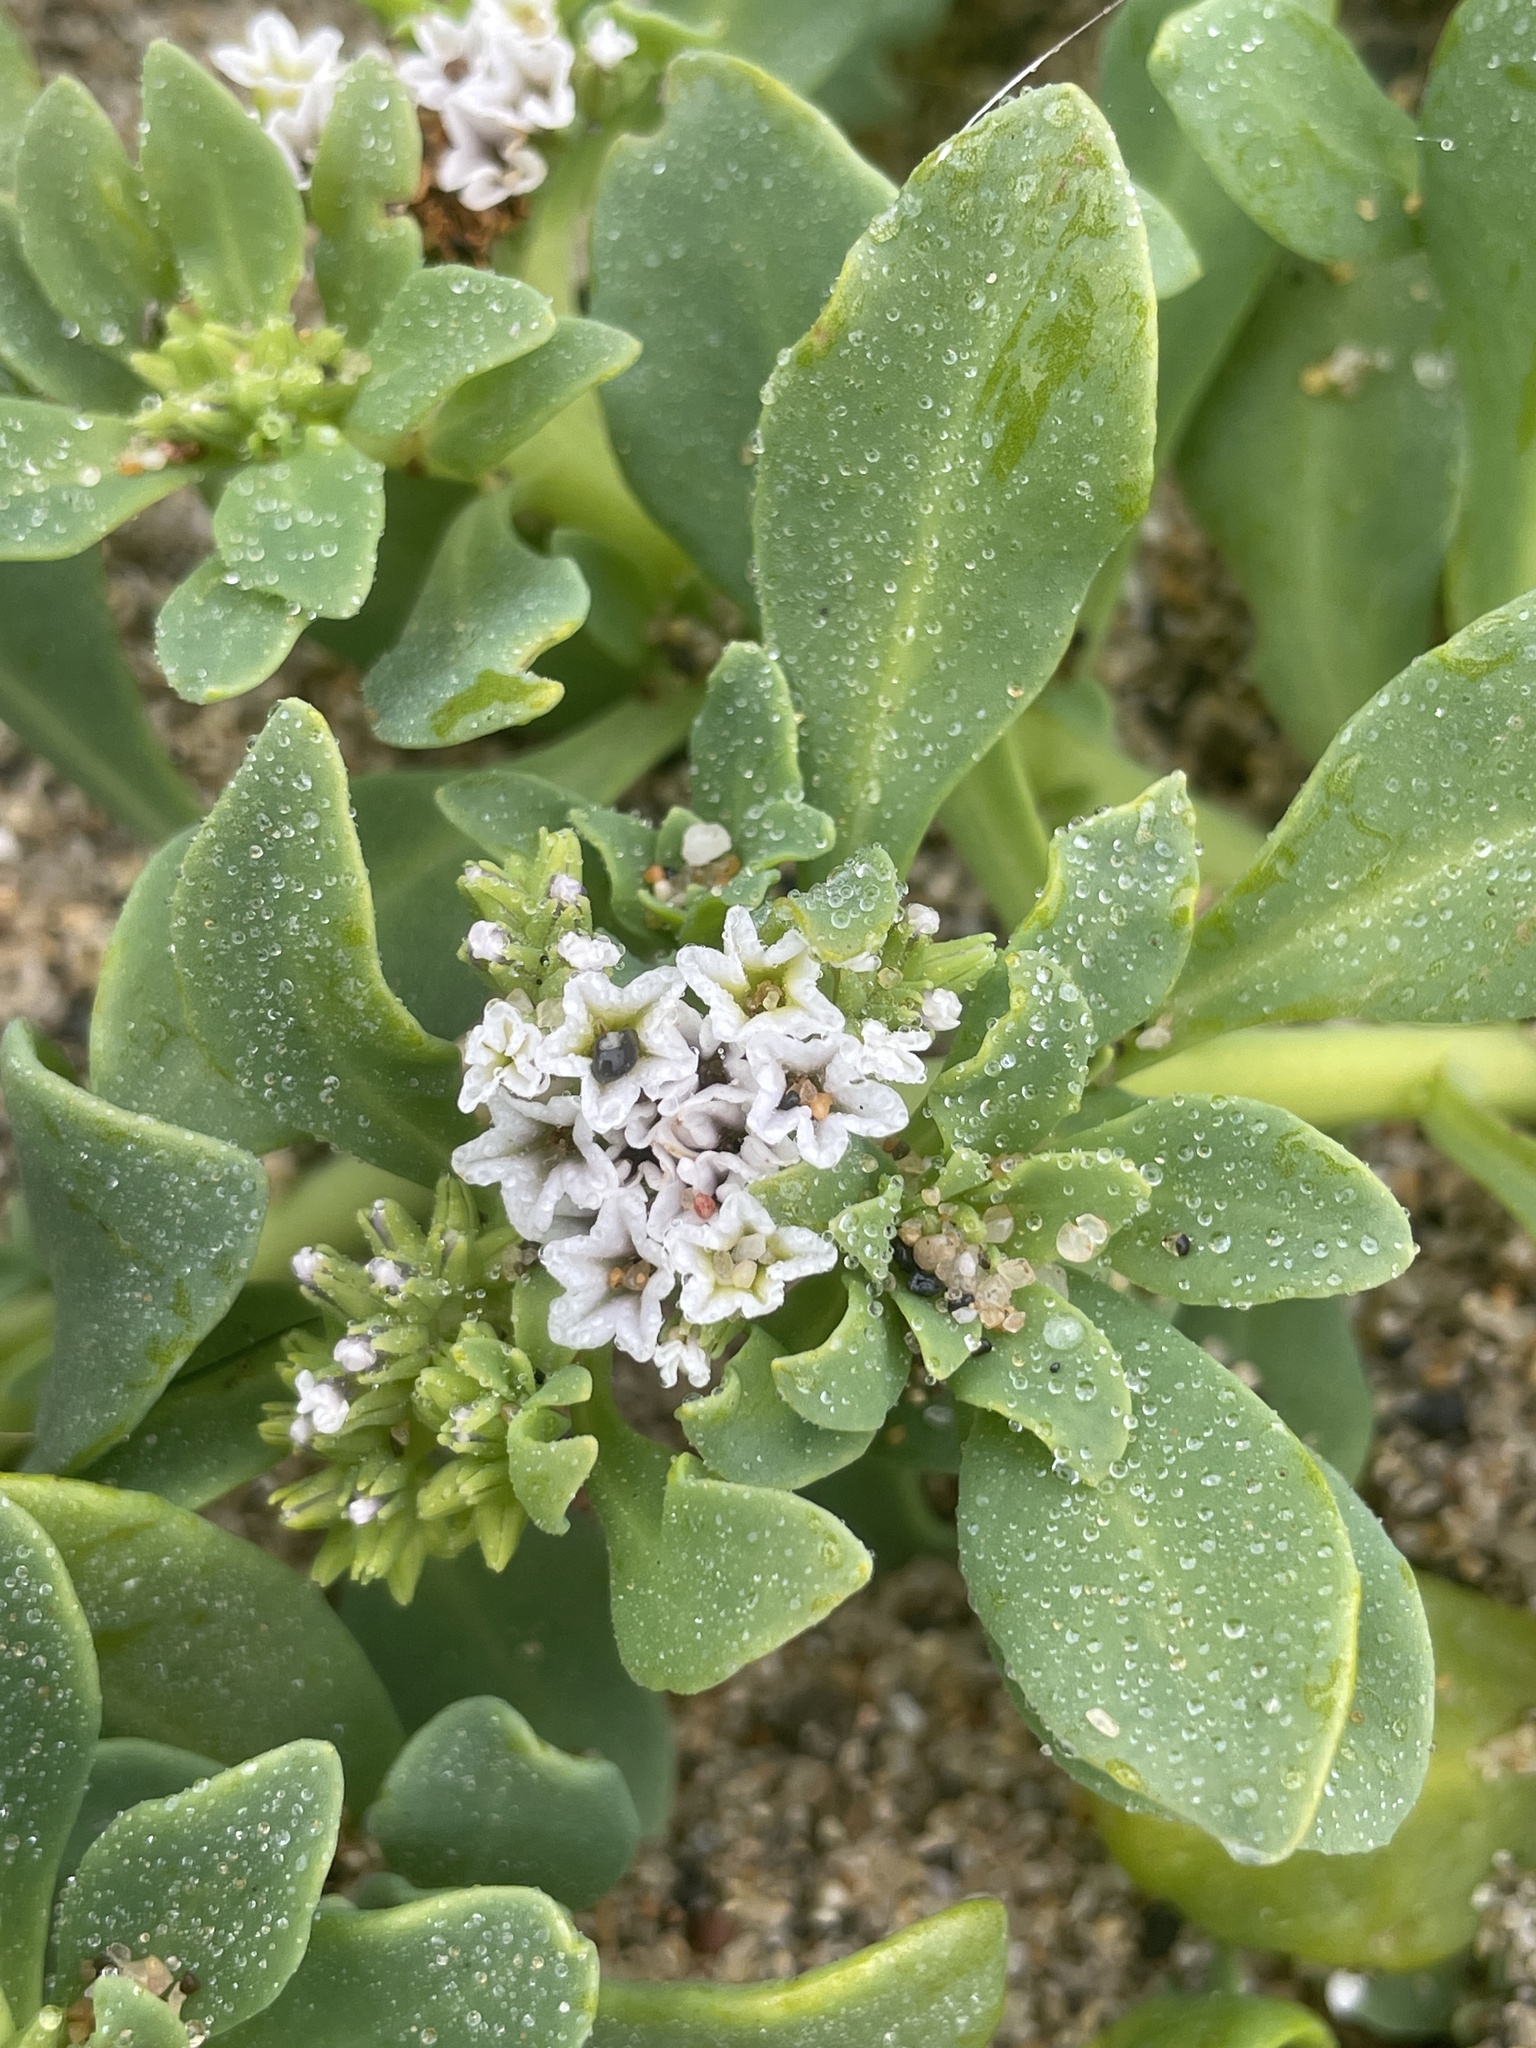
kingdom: Plantae
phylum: Tracheophyta
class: Magnoliopsida
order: Boraginales
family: Heliotropiaceae
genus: Heliotropium
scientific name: Heliotropium curassavicum
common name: Seaside heliotrope
